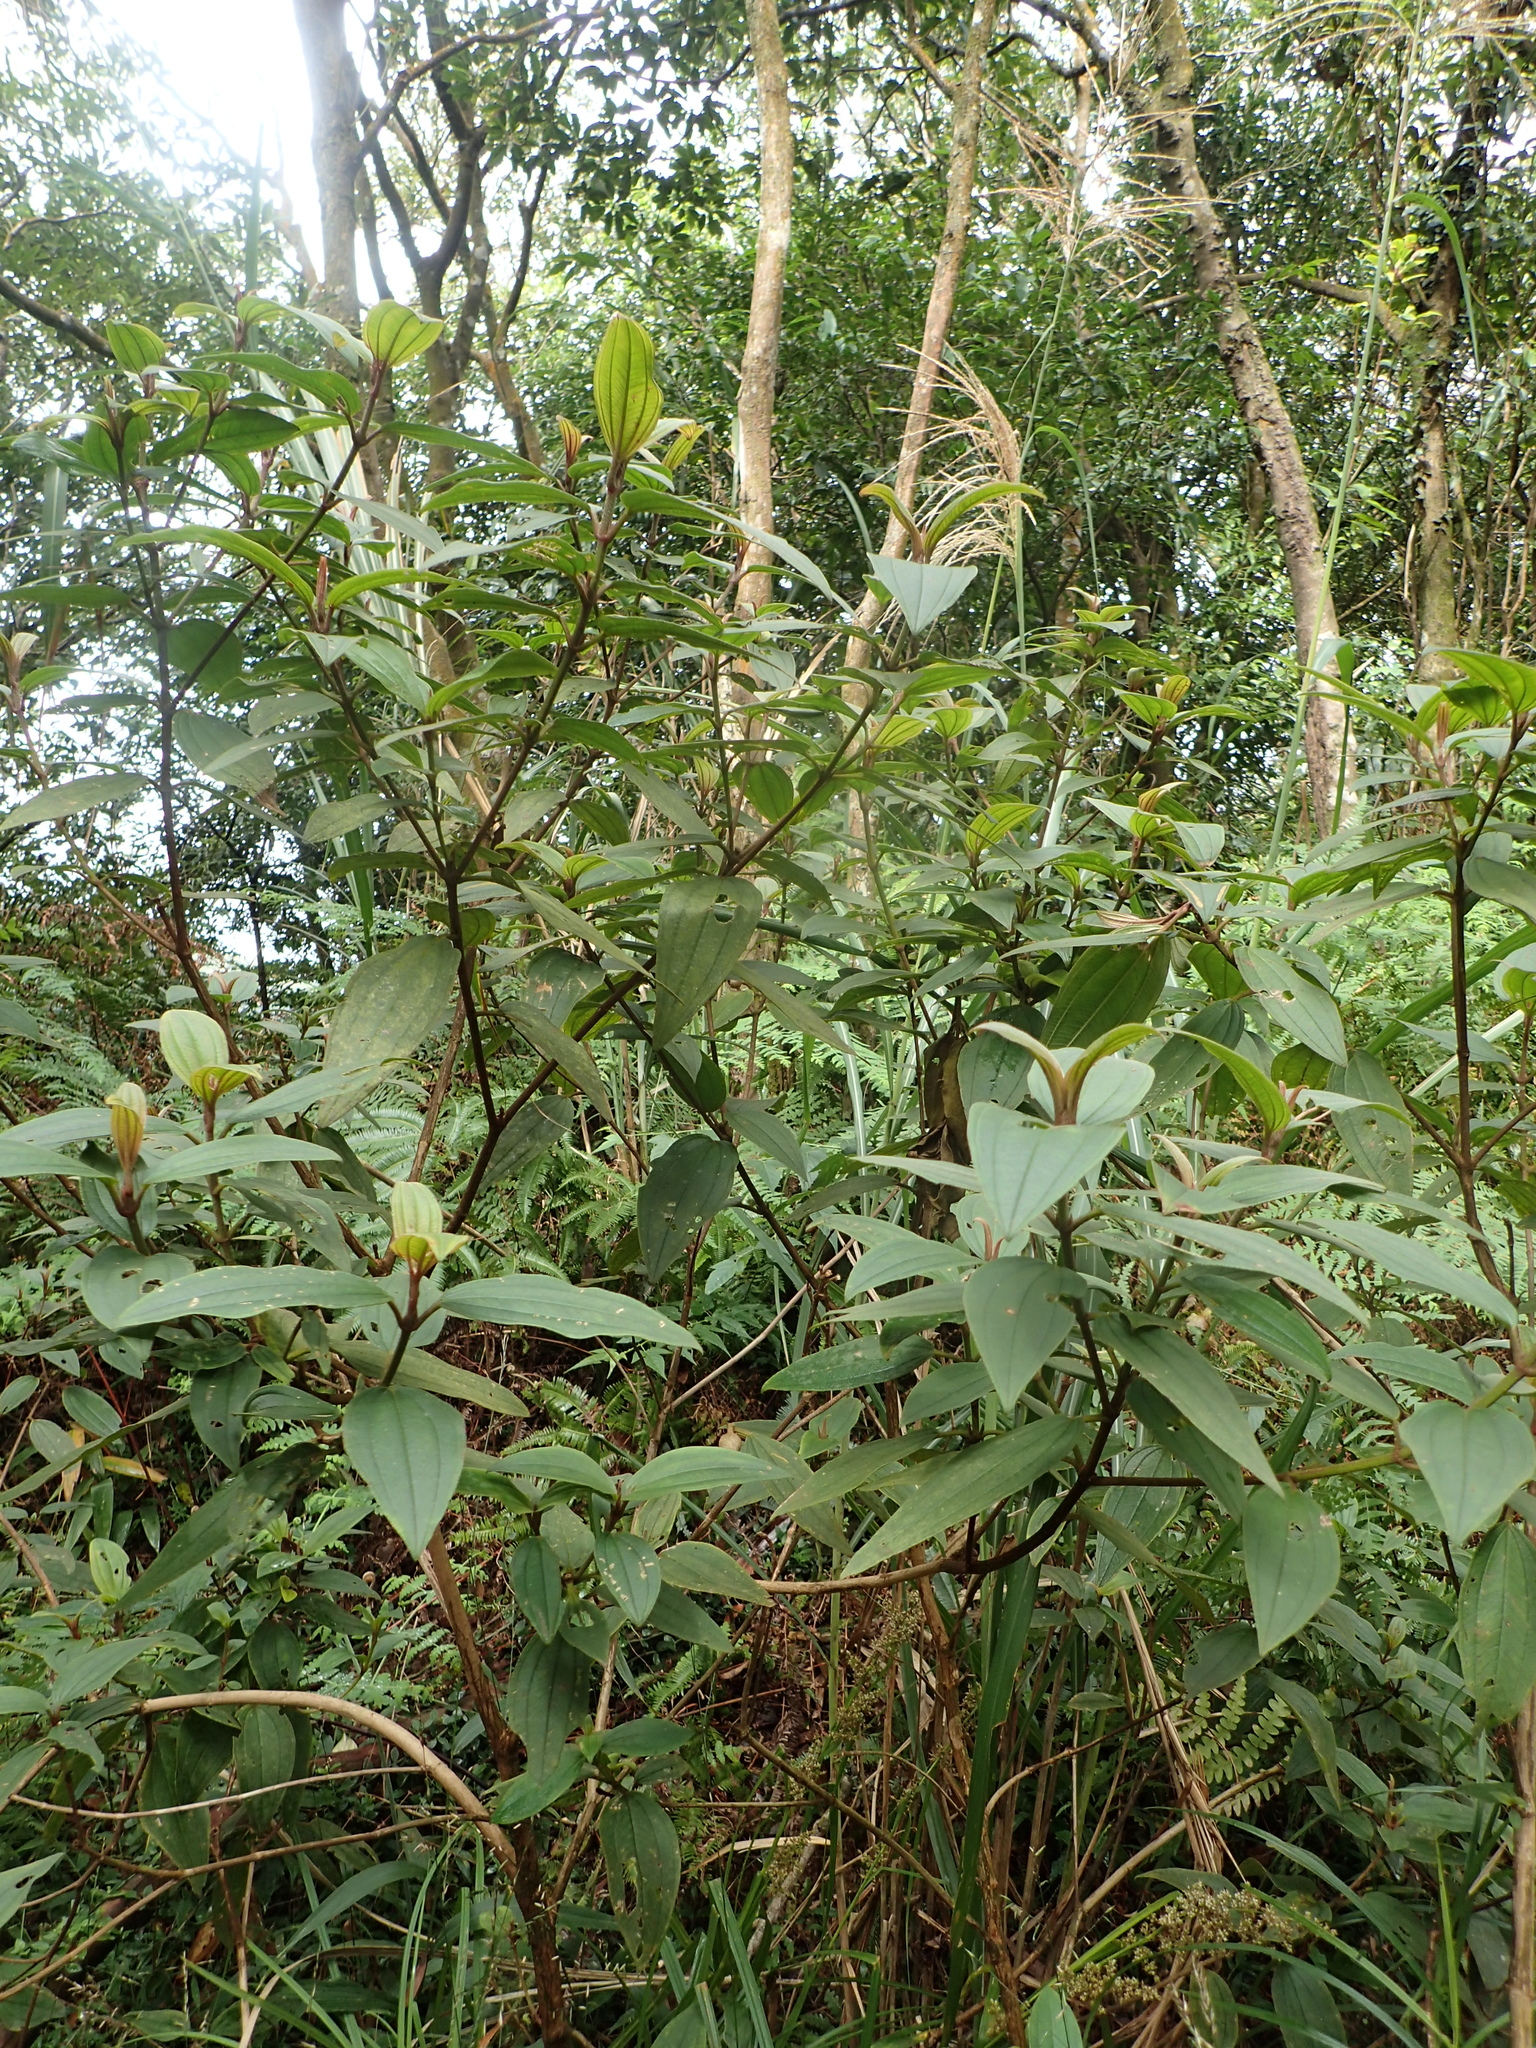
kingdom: Plantae
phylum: Tracheophyta
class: Magnoliopsida
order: Myrtales
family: Melastomataceae
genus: Melastoma
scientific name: Melastoma malabathricum
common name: Indian-rhododendron
